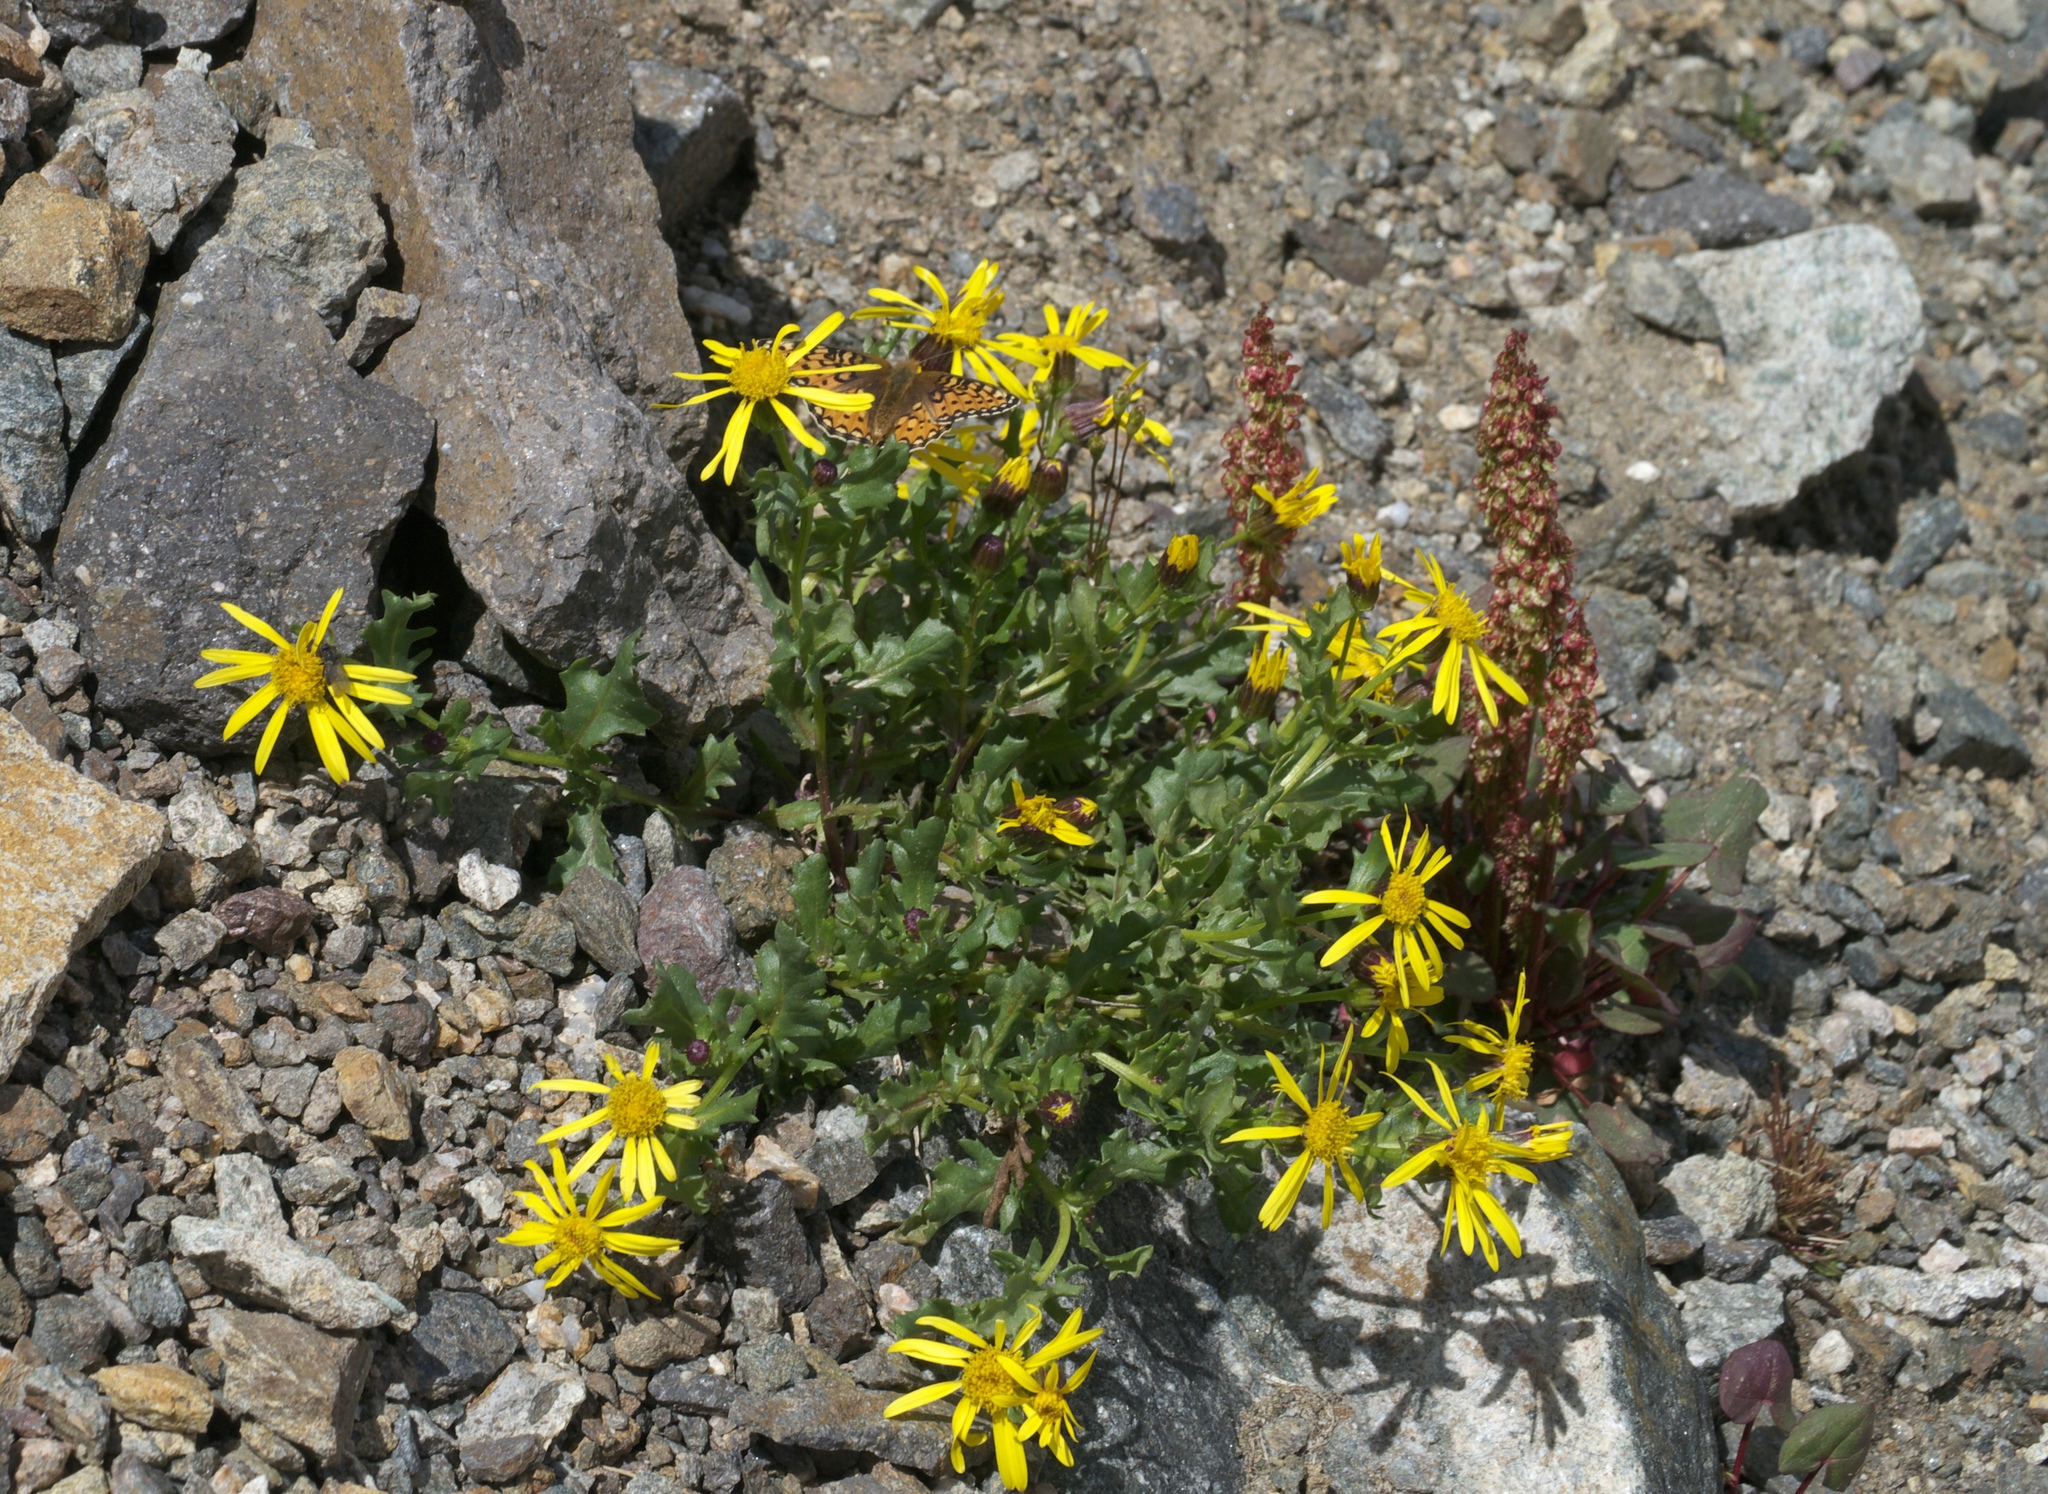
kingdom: Plantae
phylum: Tracheophyta
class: Magnoliopsida
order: Asterales
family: Asteraceae
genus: Senecio
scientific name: Senecio fremontii
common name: Fremont's groundsel
